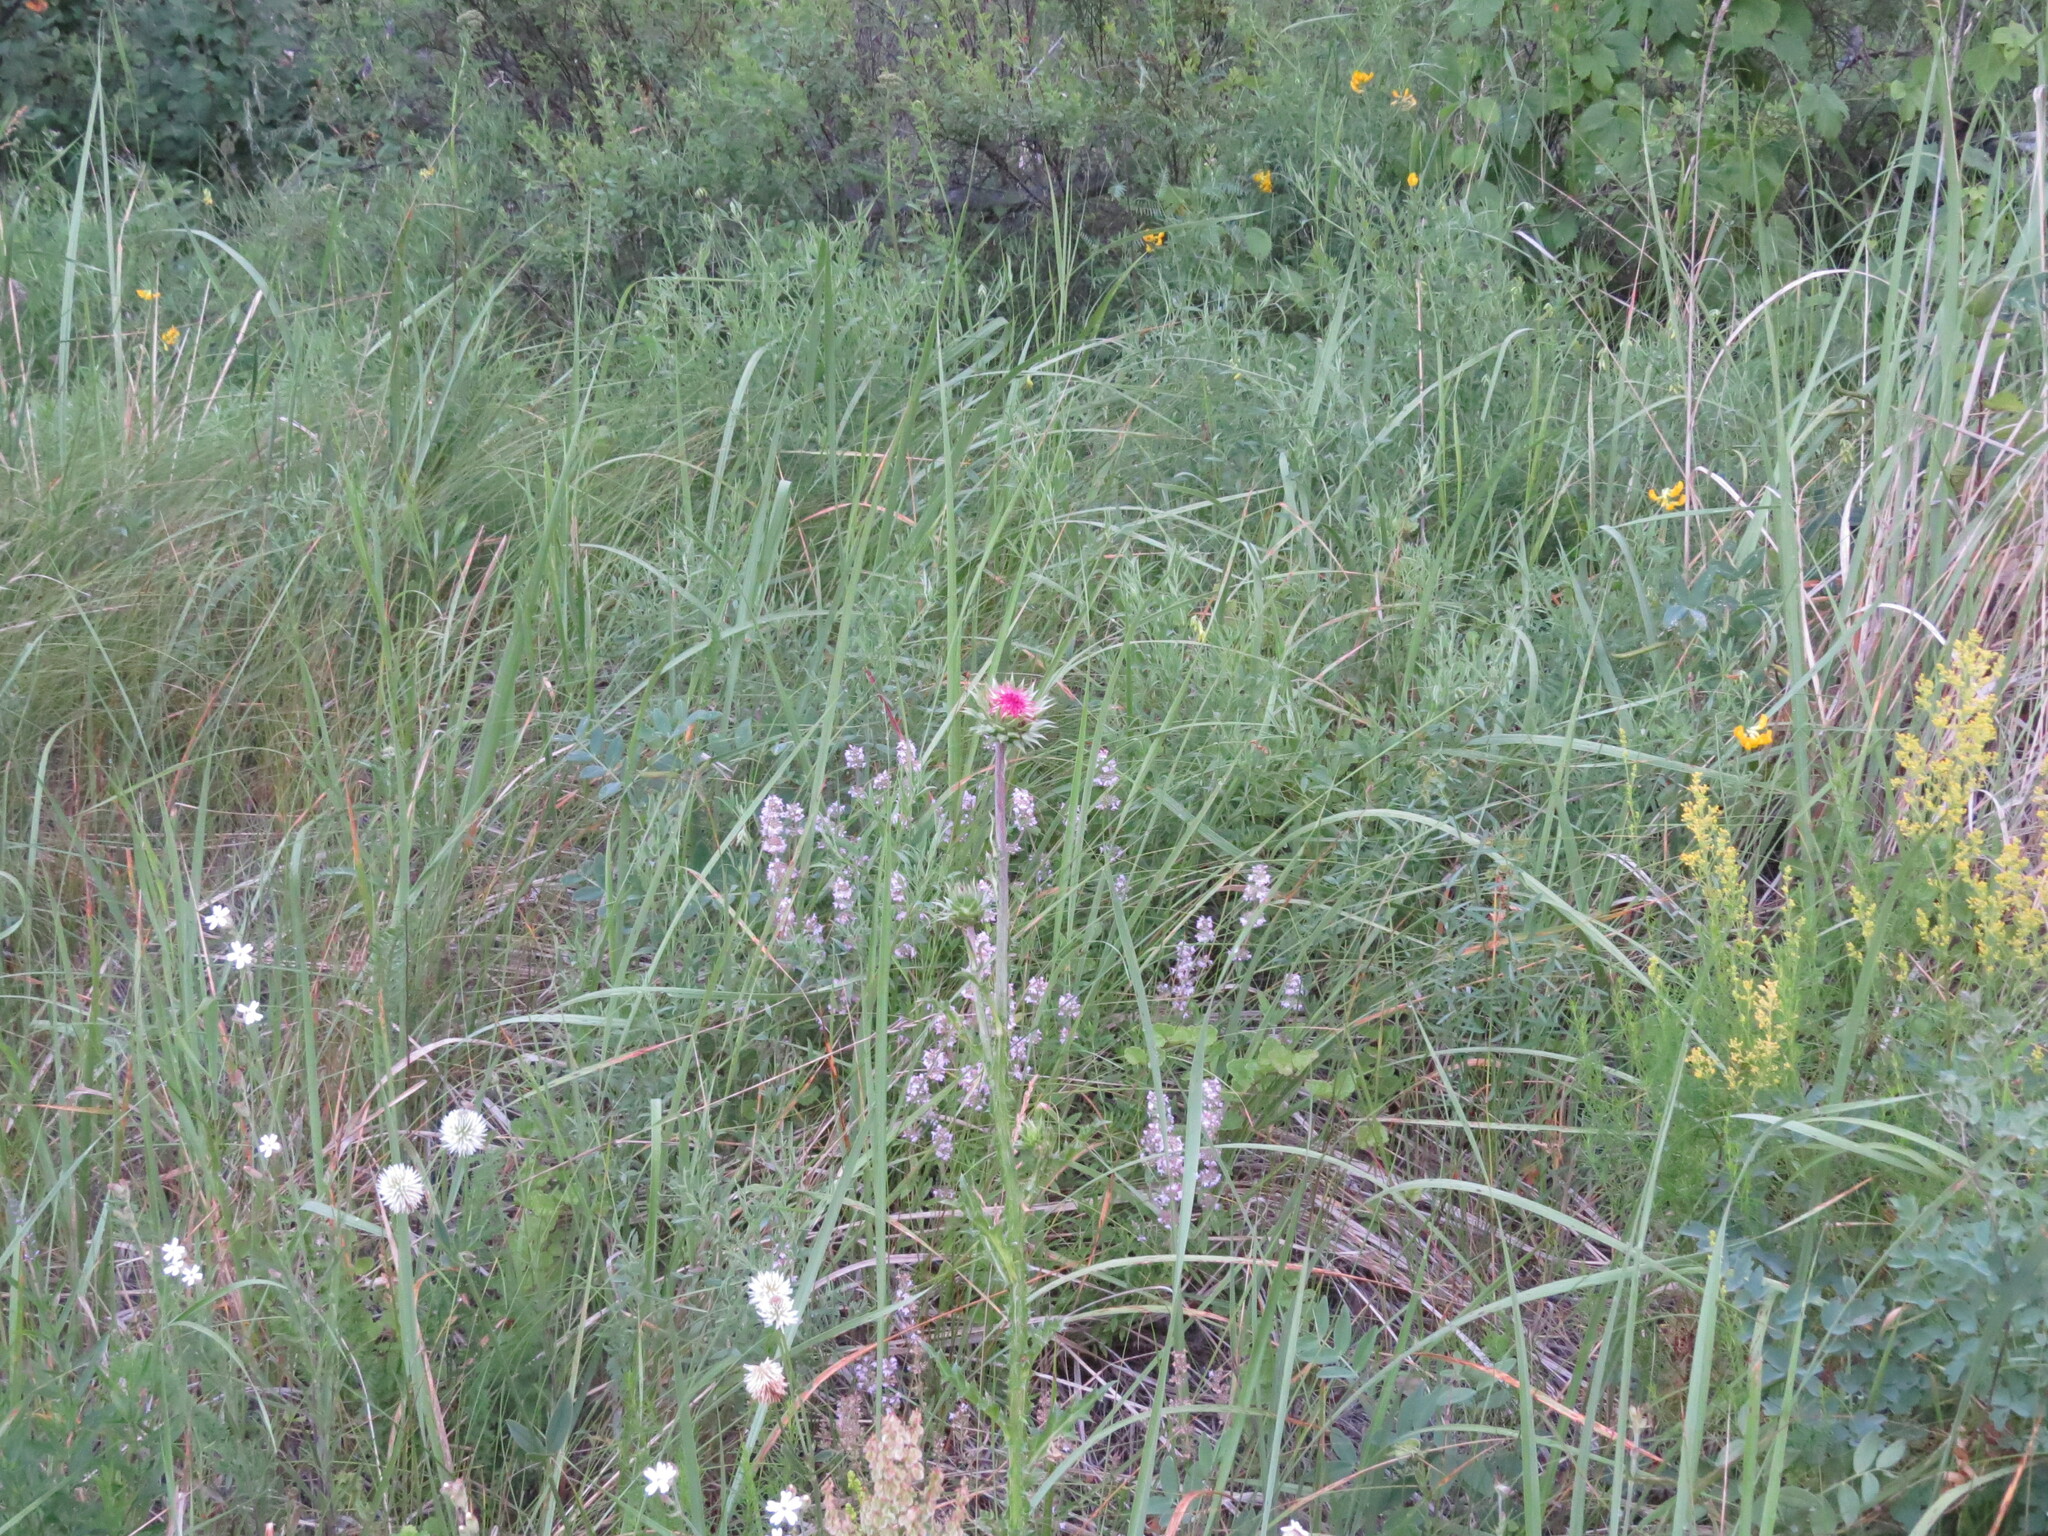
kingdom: Plantae
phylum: Tracheophyta
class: Magnoliopsida
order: Asterales
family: Asteraceae
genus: Carduus
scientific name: Carduus nutans
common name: Musk thistle
